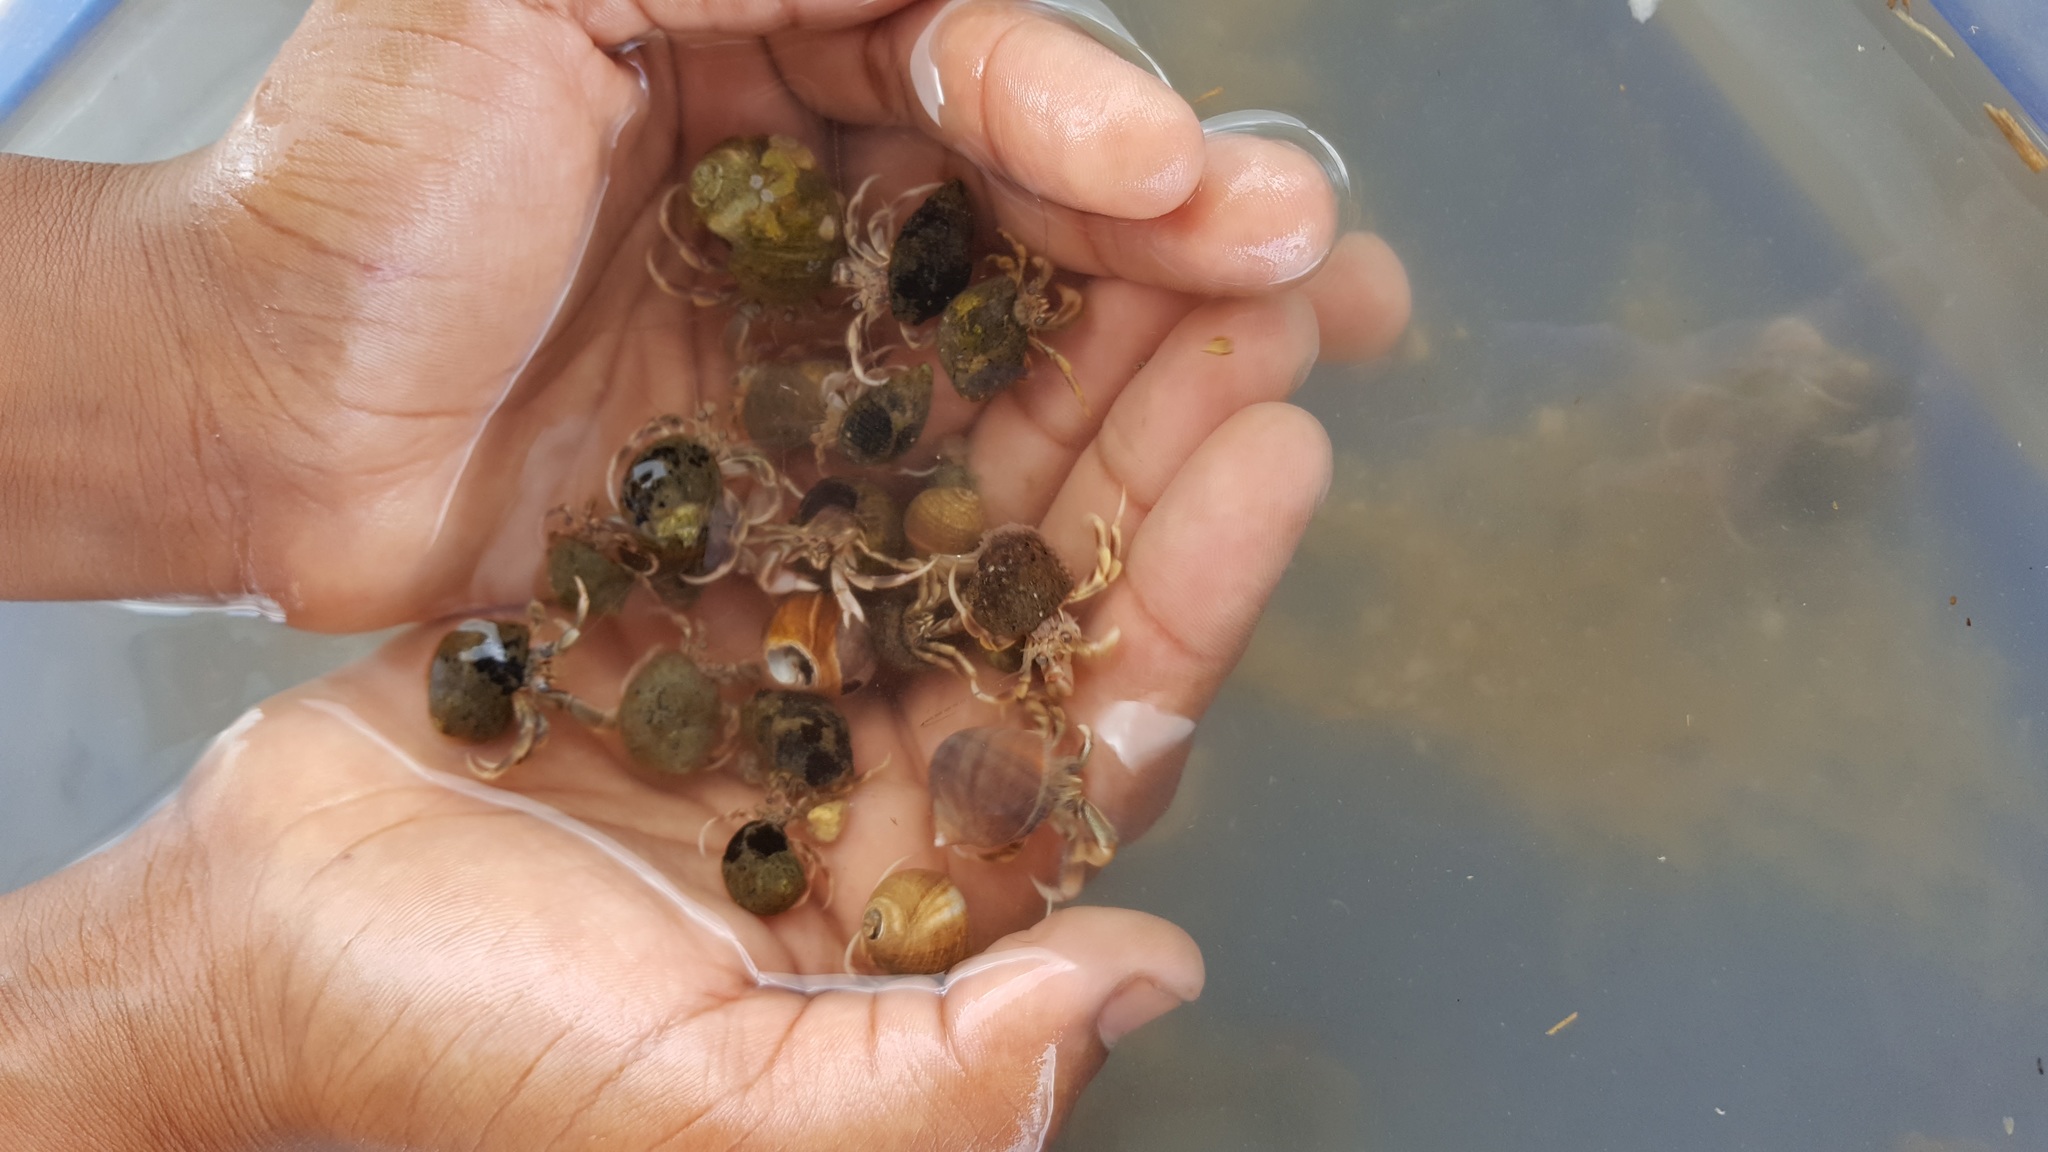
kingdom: Animalia
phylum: Arthropoda
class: Malacostraca
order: Decapoda
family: Paguridae
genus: Pagurus
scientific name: Pagurus longicarpus
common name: Long-armed hermit crab
